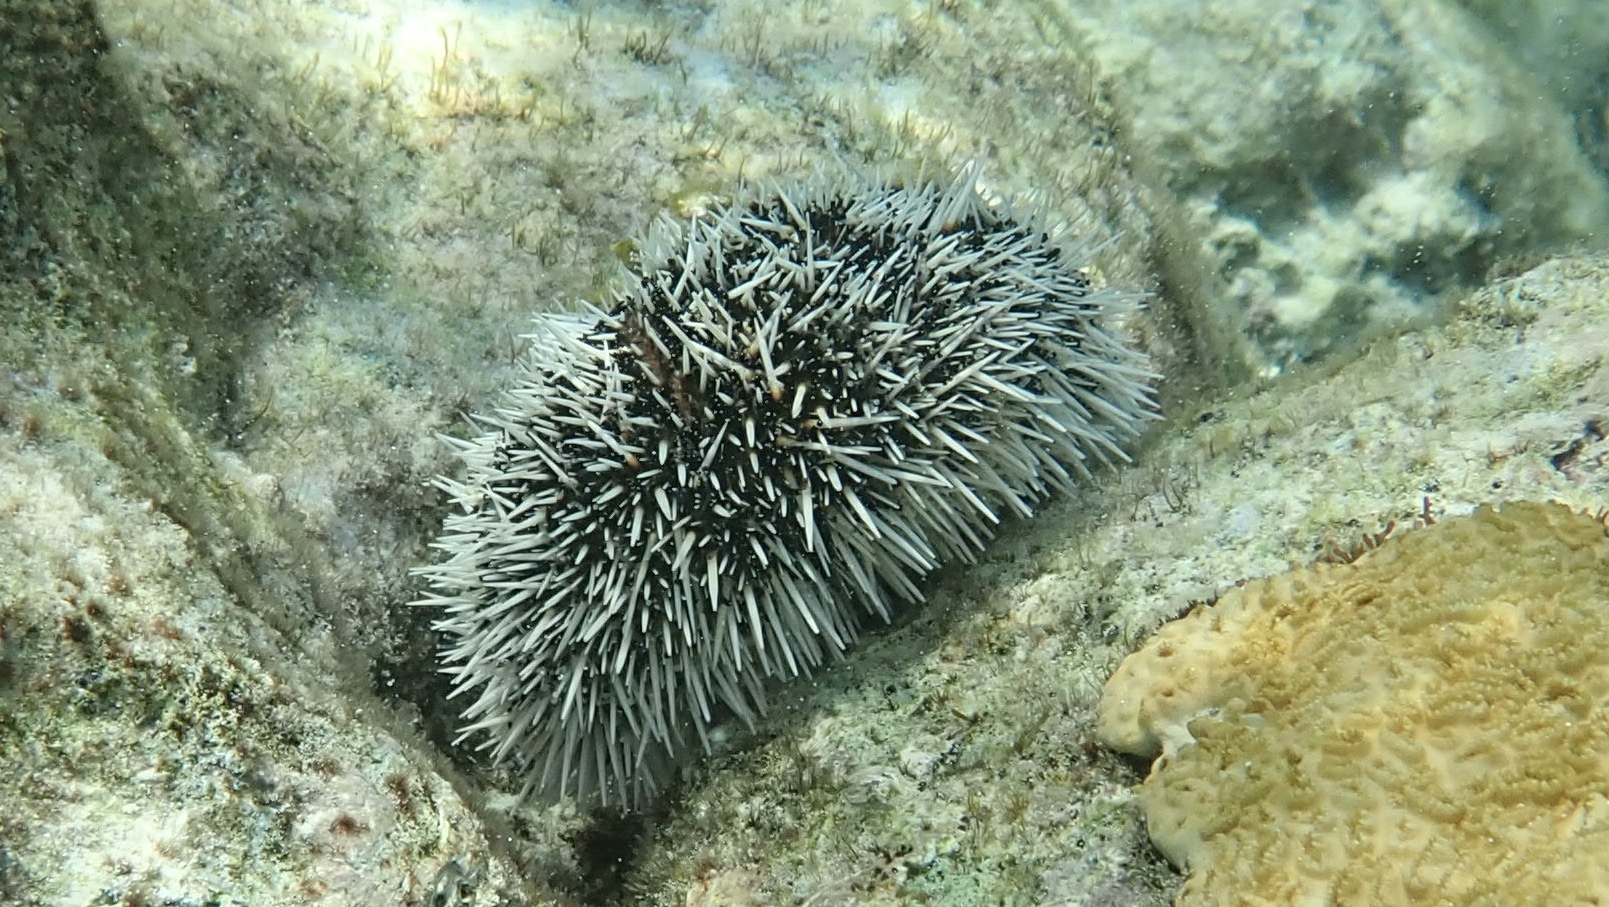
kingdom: Animalia
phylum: Echinodermata
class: Echinoidea
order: Camarodonta
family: Toxopneustidae
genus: Tripneustes
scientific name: Tripneustes ventricosus
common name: West indian sea egg
